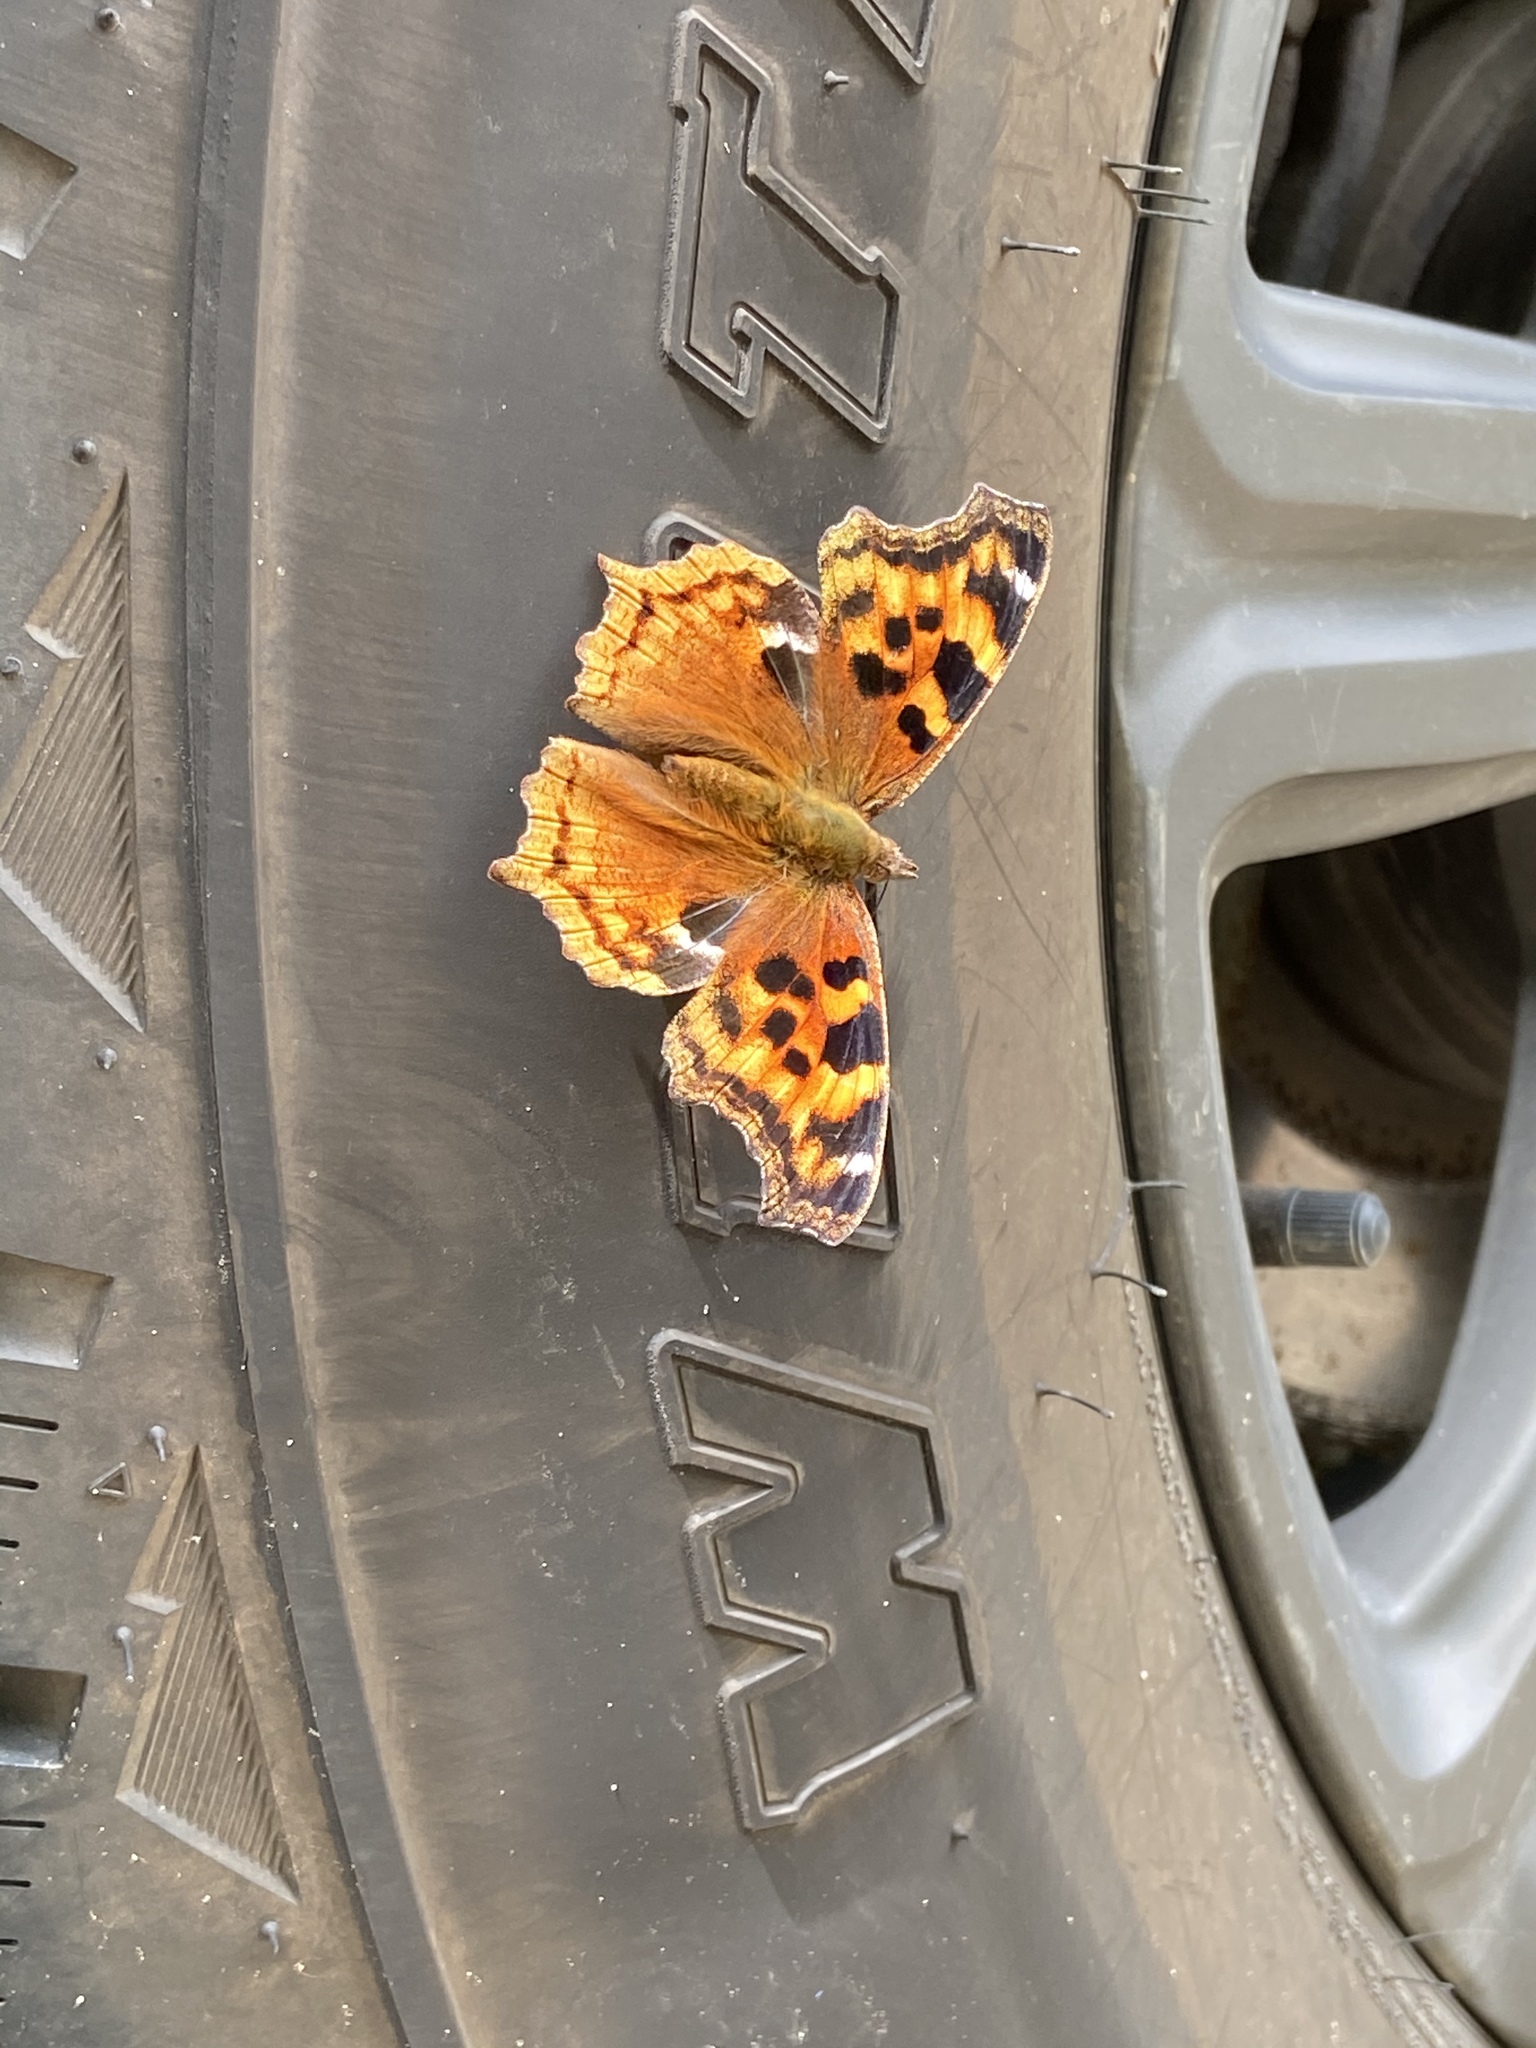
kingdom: Animalia
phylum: Arthropoda
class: Insecta
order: Lepidoptera
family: Nymphalidae
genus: Polygonia
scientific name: Polygonia vaualbum
